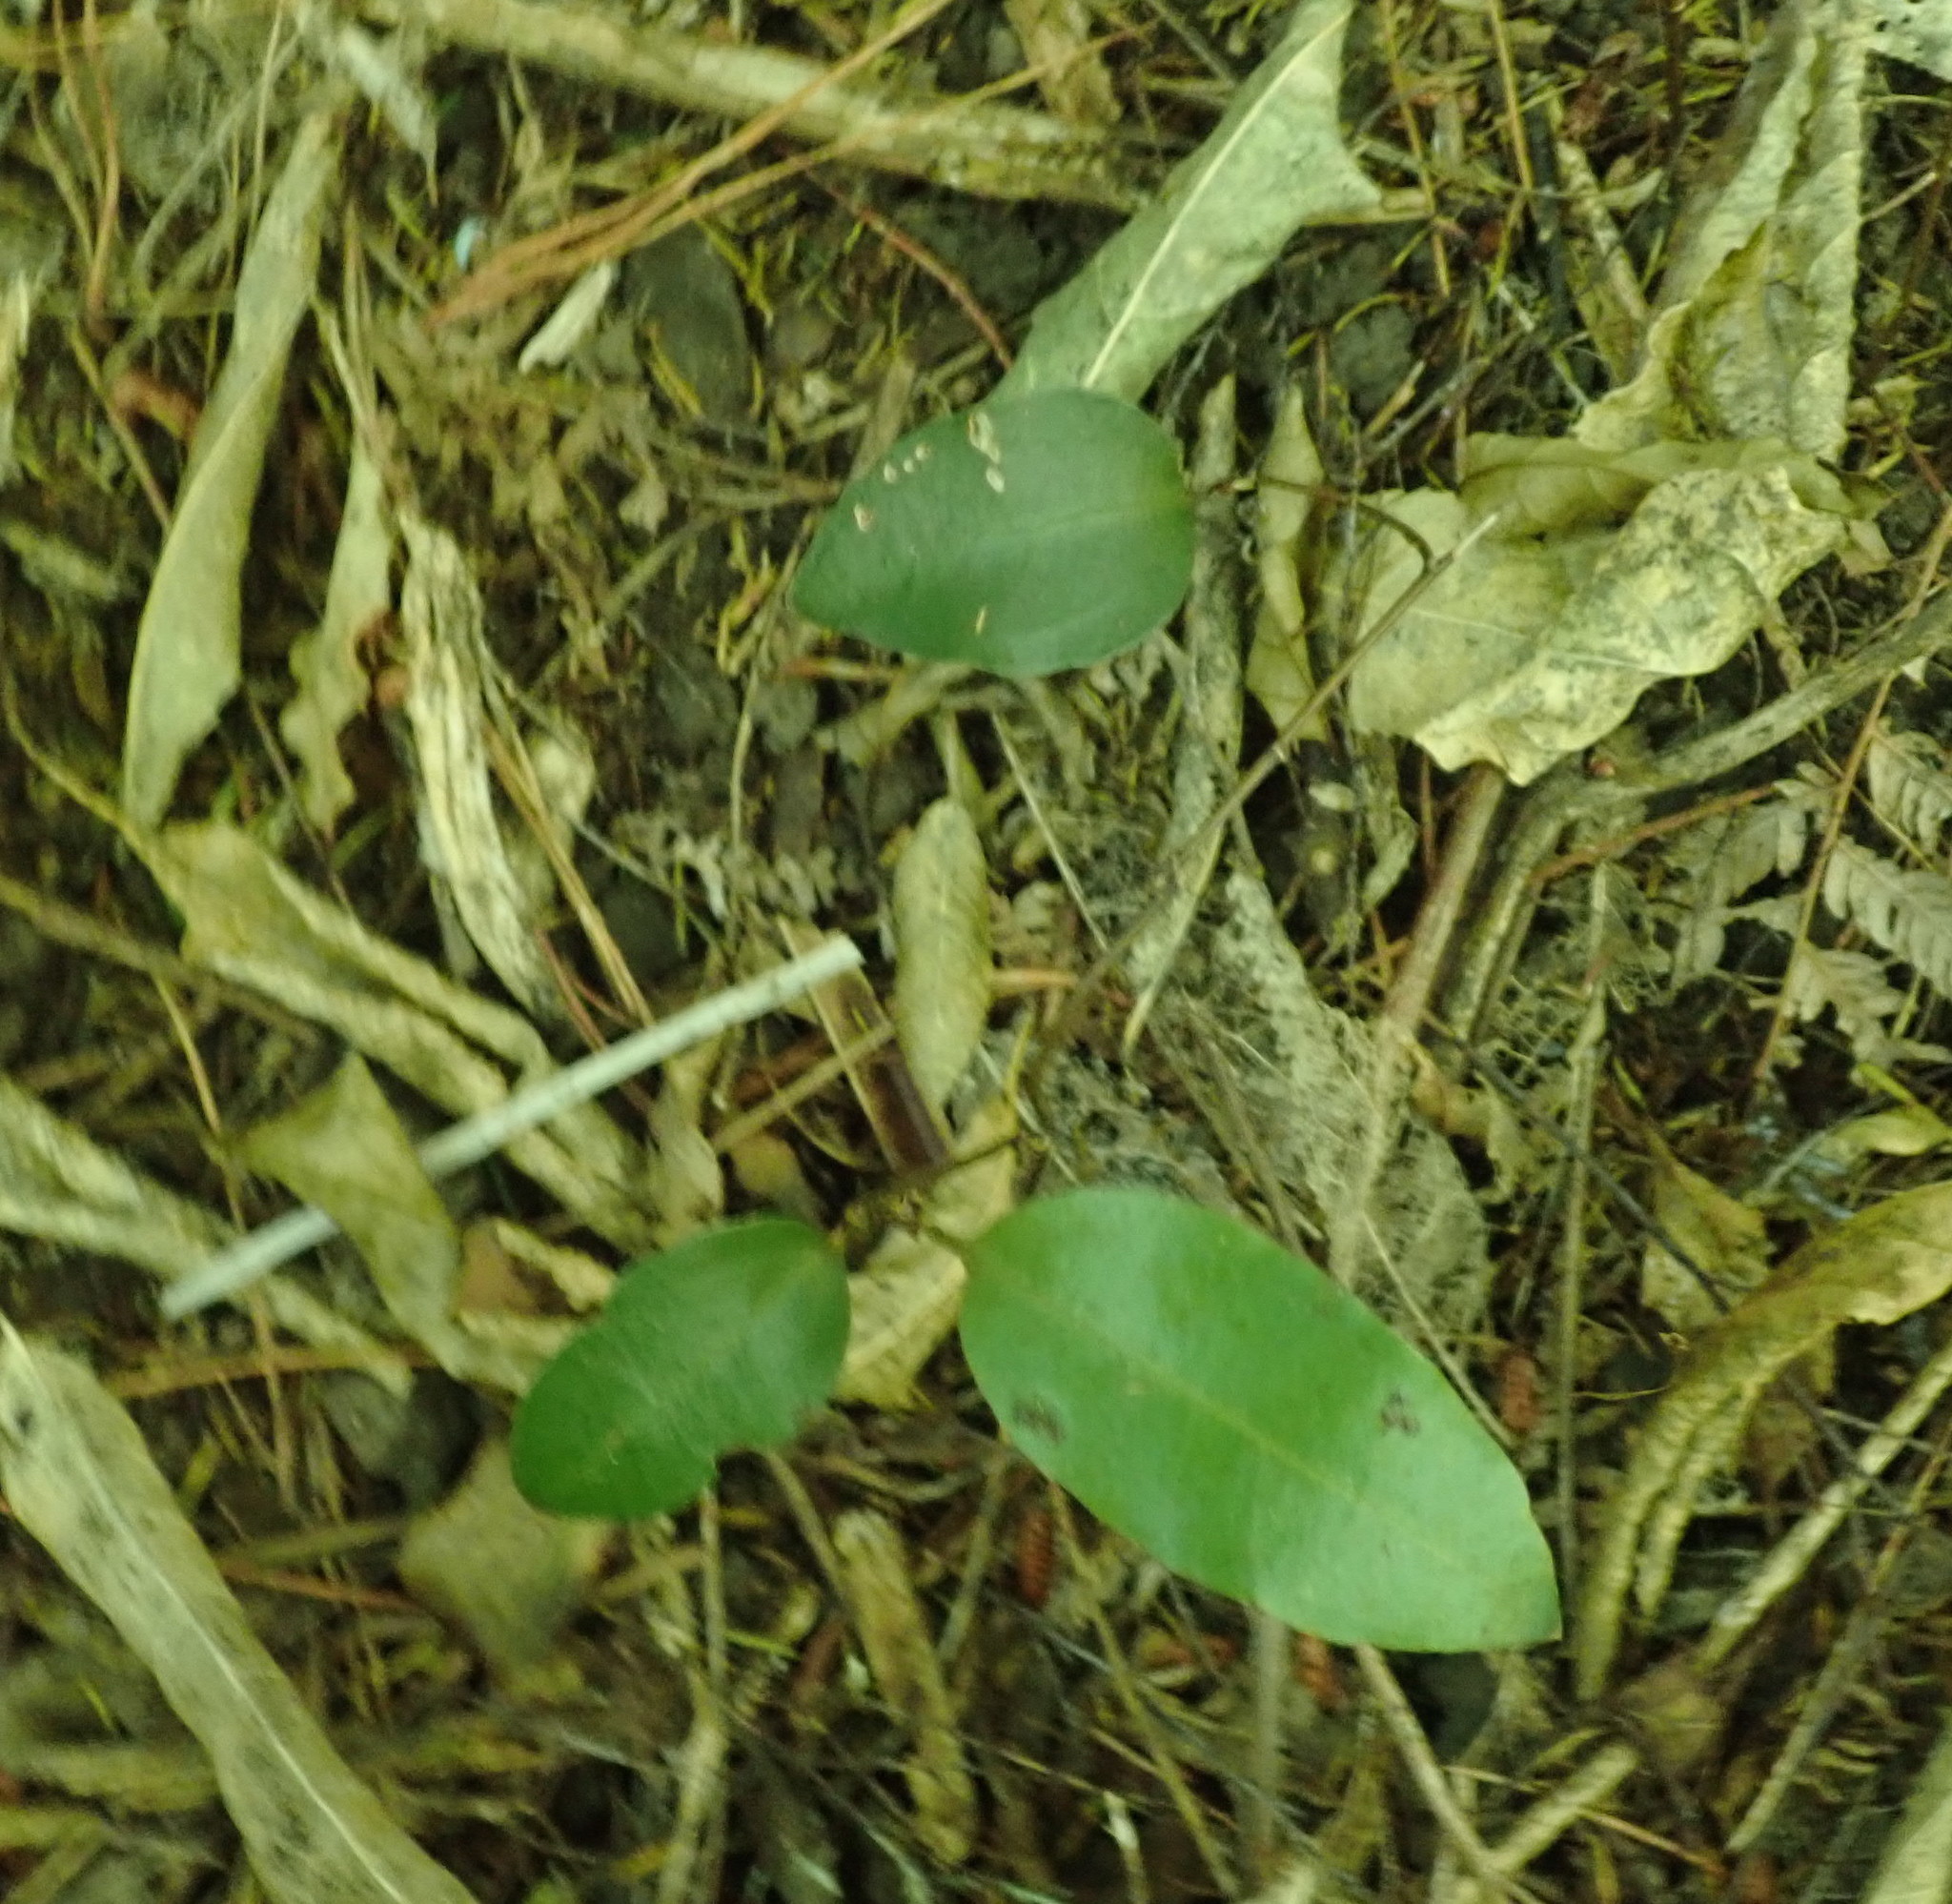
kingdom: Plantae
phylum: Tracheophyta
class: Liliopsida
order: Liliales
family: Ripogonaceae
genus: Ripogonum
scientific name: Ripogonum scandens
